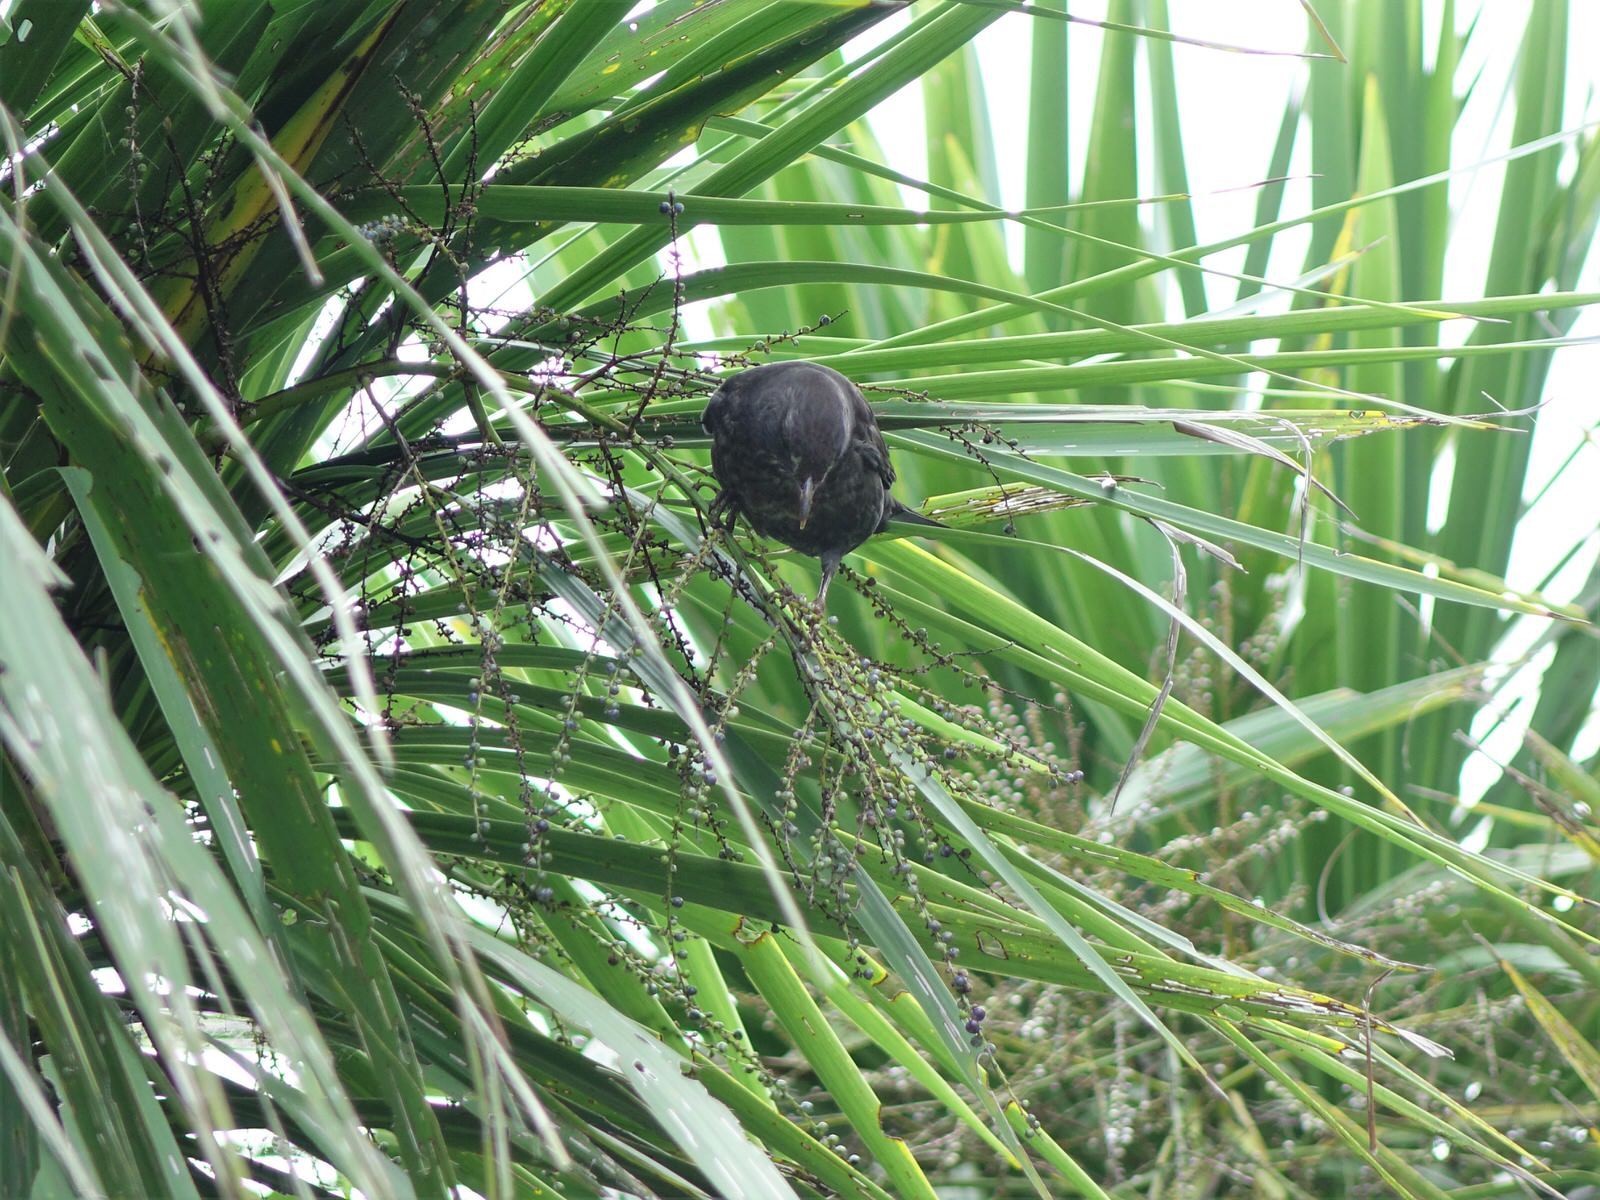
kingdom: Animalia
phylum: Chordata
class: Aves
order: Passeriformes
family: Turdidae
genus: Turdus
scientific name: Turdus merula
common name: Common blackbird
